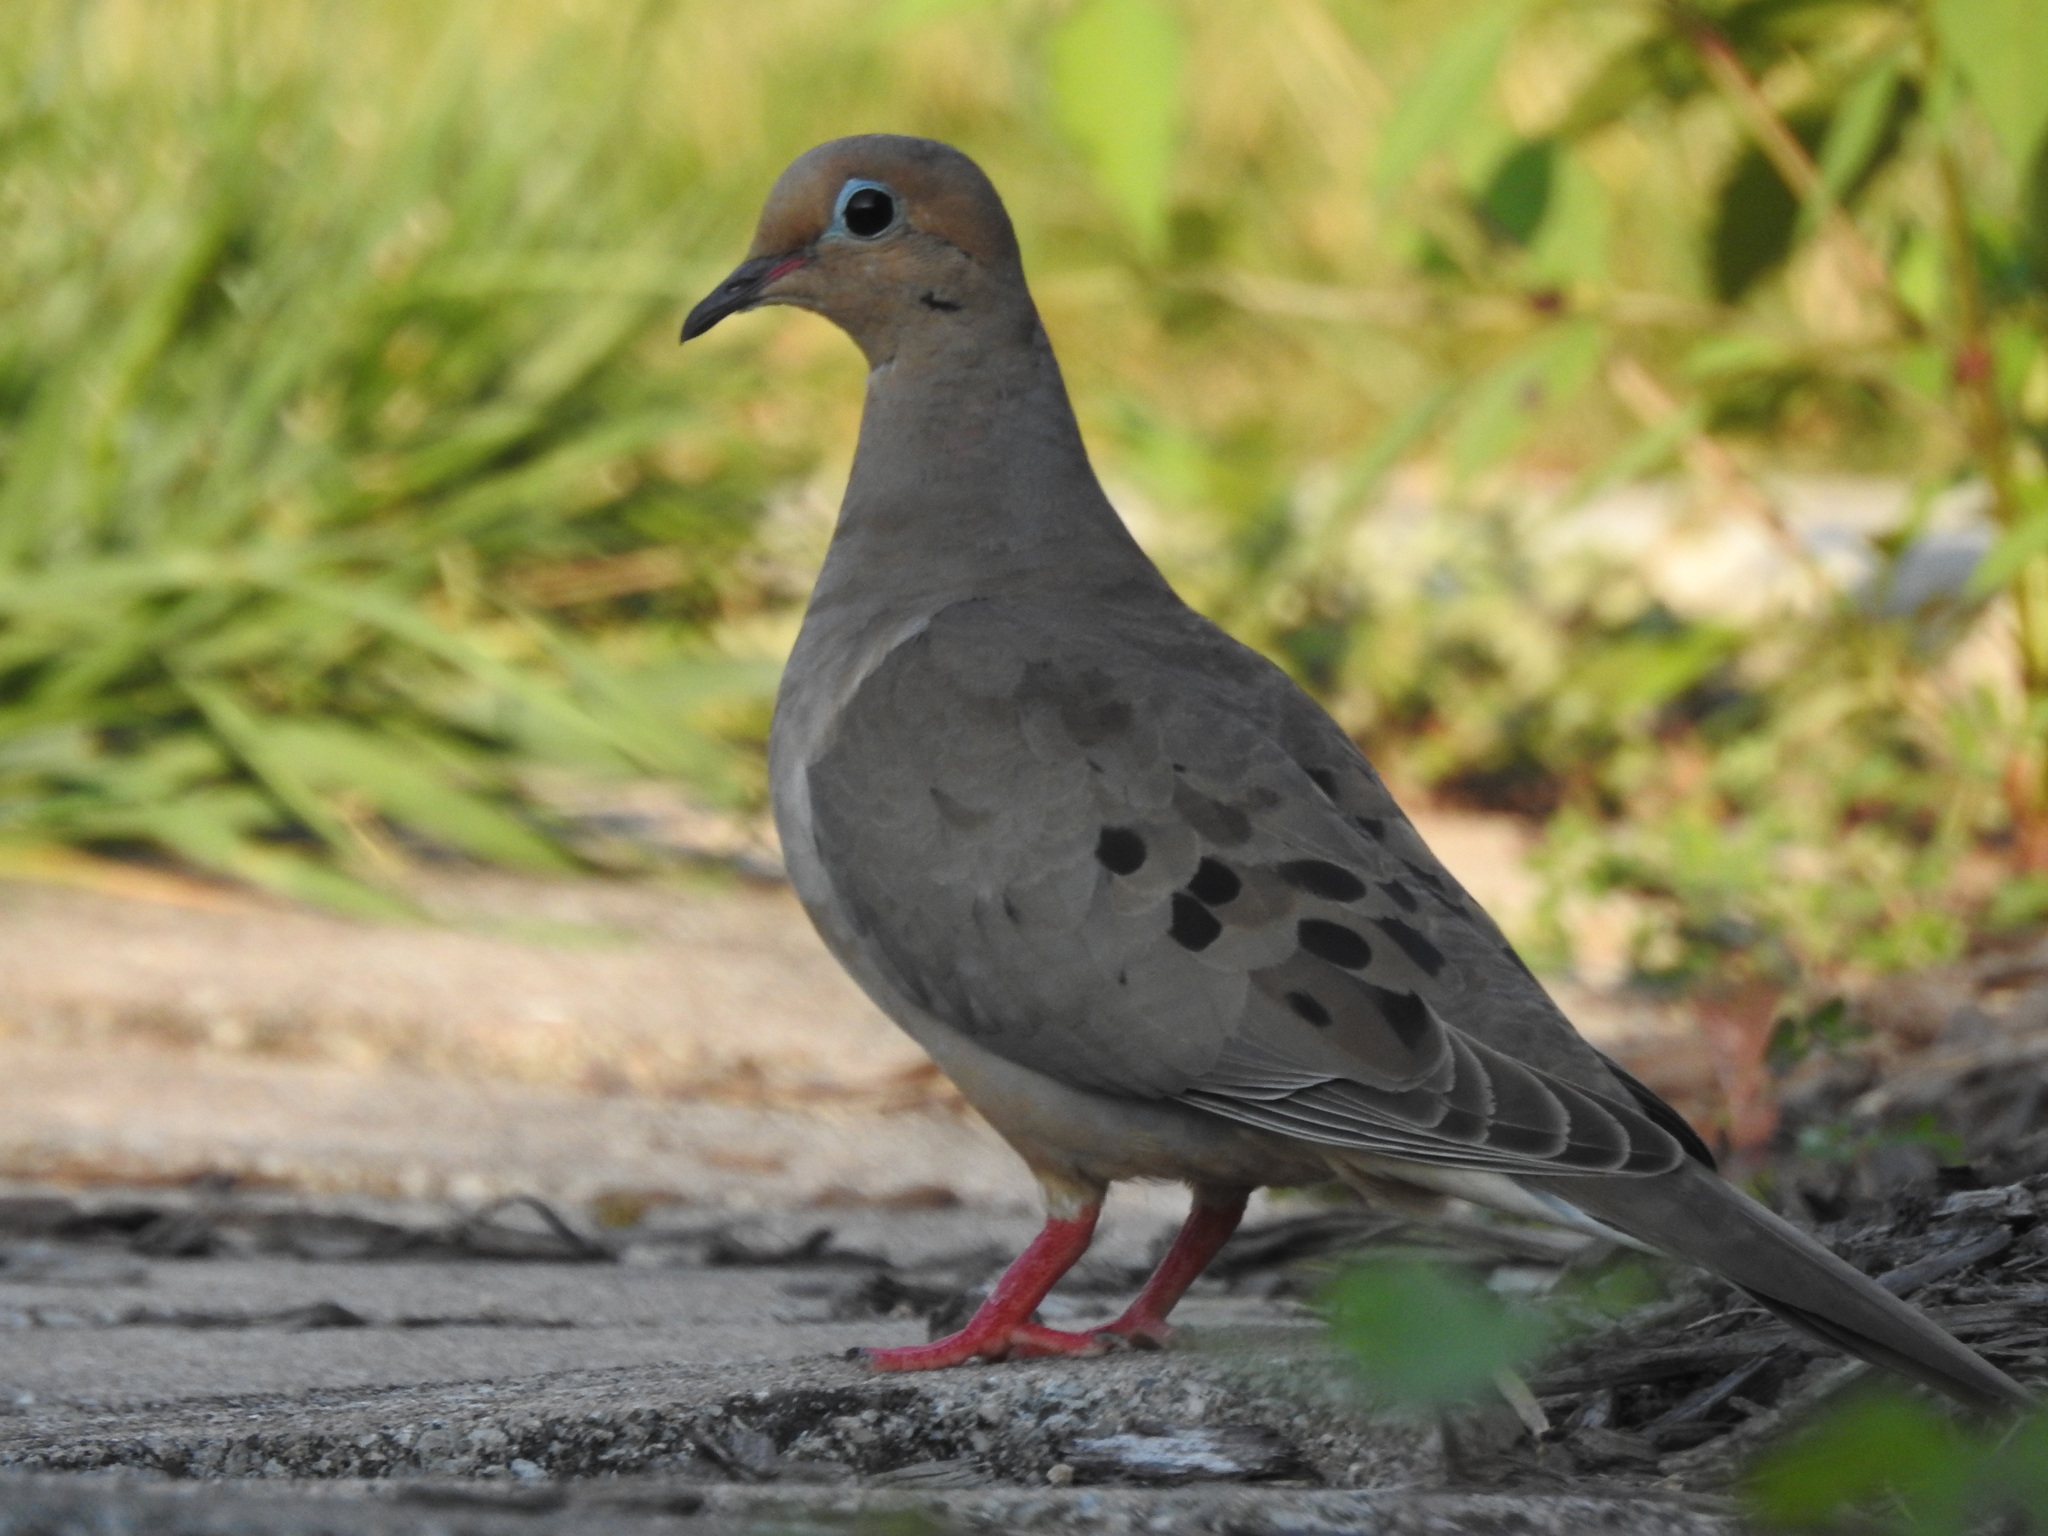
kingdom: Animalia
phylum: Chordata
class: Aves
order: Columbiformes
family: Columbidae
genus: Zenaida
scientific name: Zenaida macroura
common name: Mourning dove
